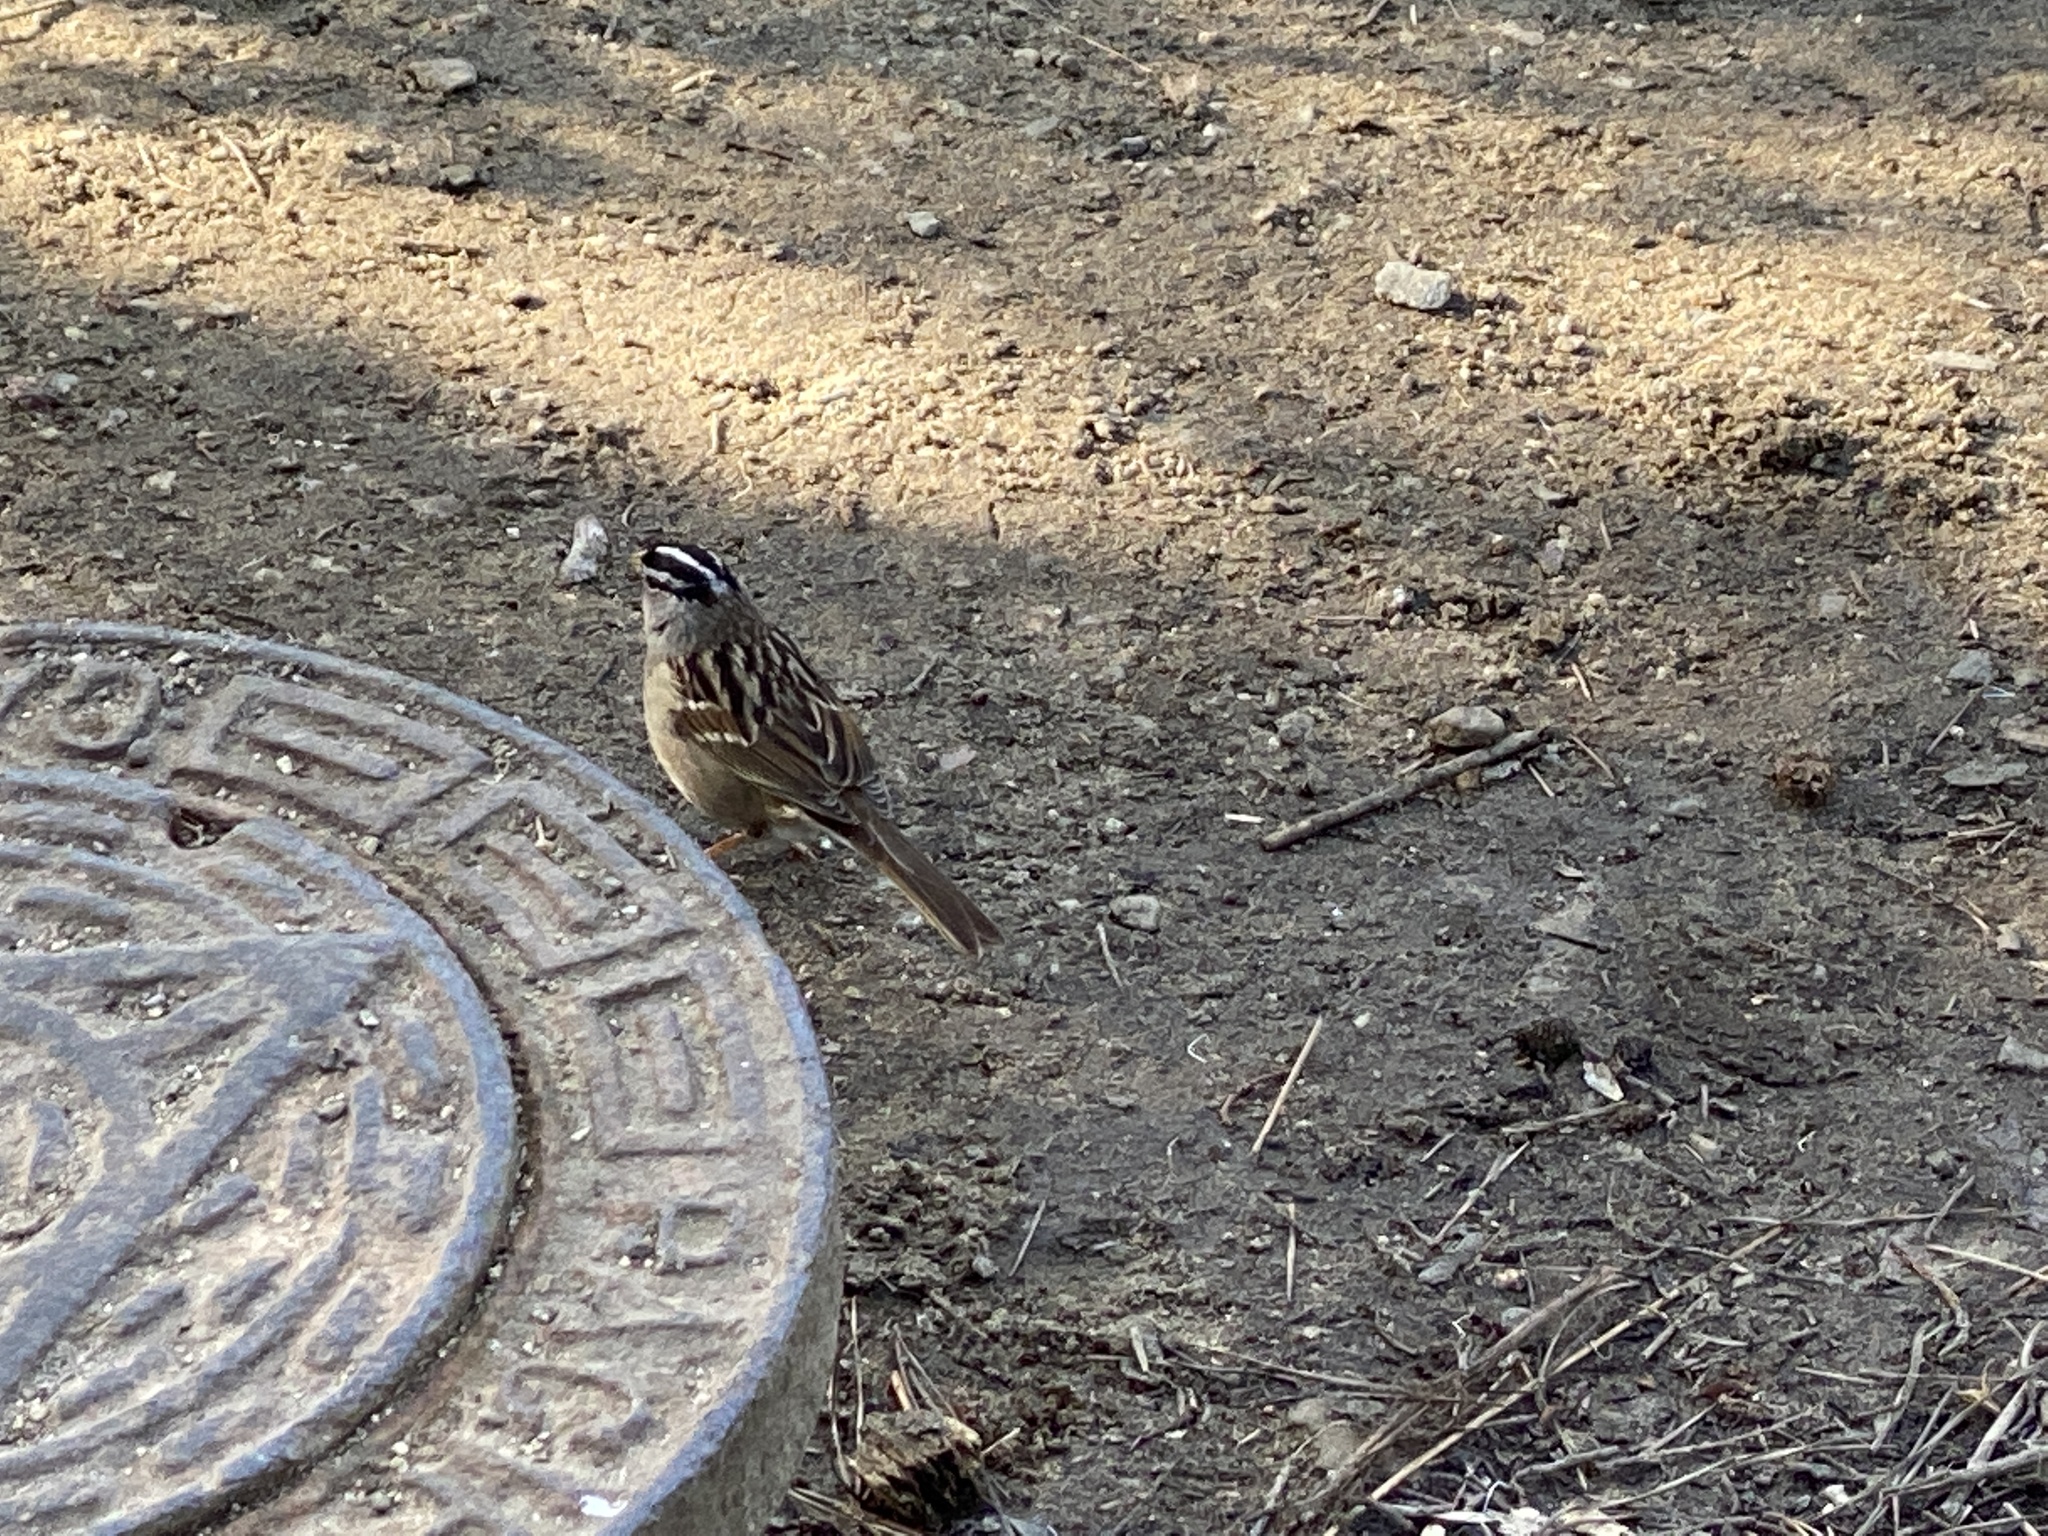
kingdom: Animalia
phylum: Chordata
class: Aves
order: Passeriformes
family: Passerellidae
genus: Zonotrichia
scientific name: Zonotrichia leucophrys
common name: White-crowned sparrow
